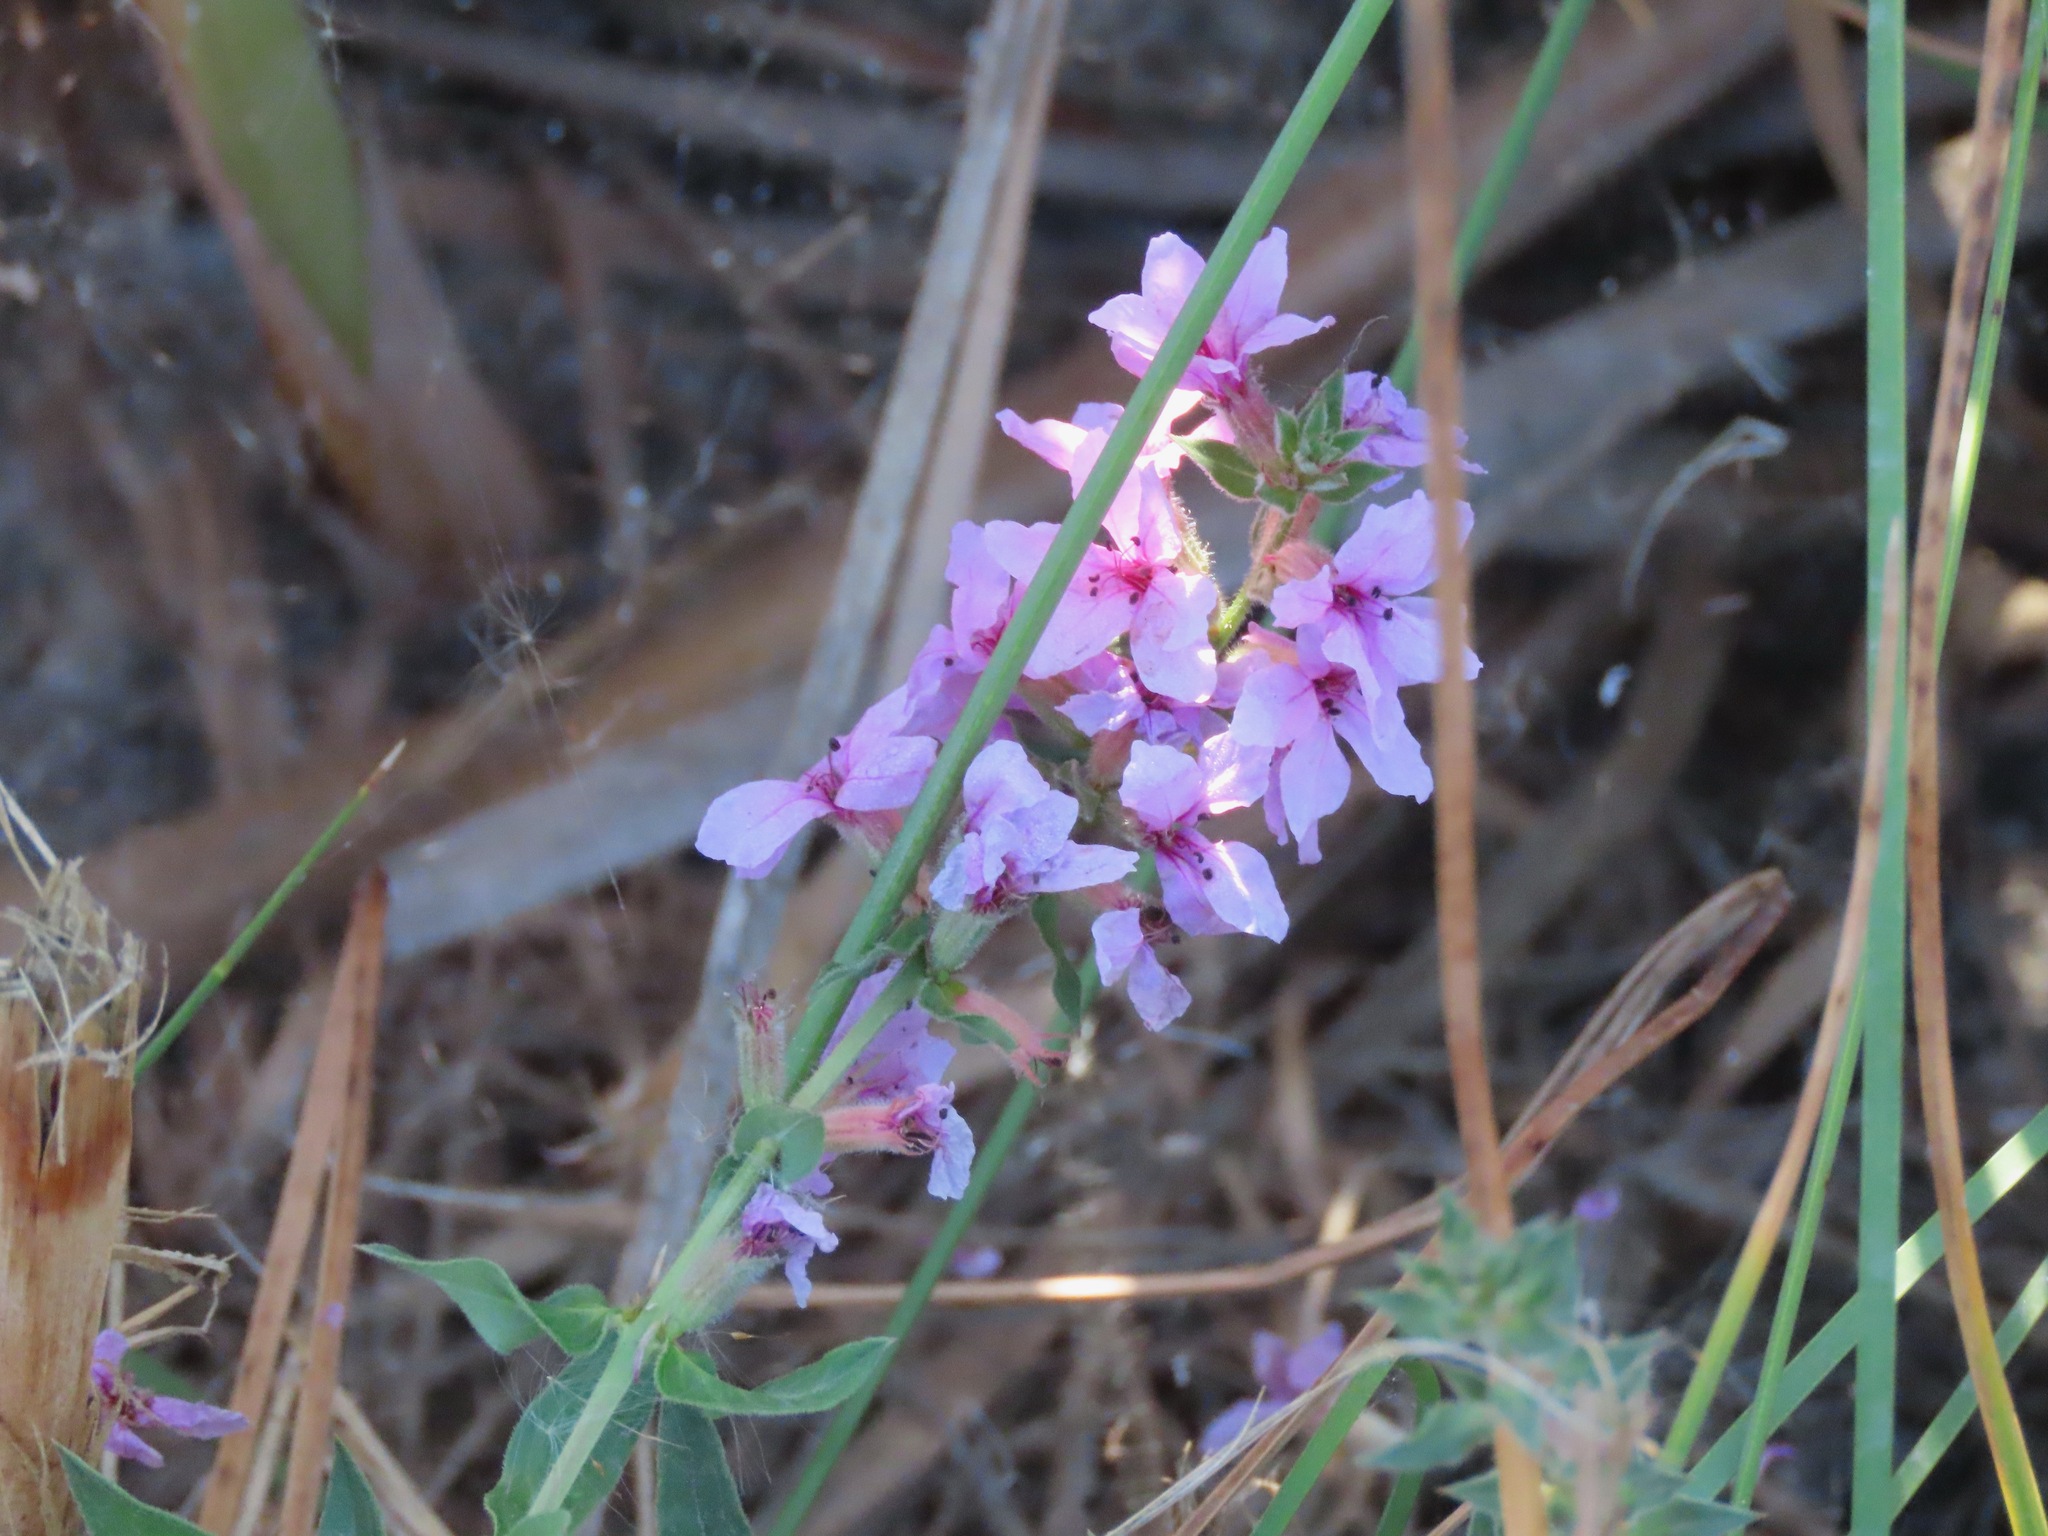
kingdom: Plantae
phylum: Tracheophyta
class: Magnoliopsida
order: Myrtales
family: Lythraceae
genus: Lythrum
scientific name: Lythrum salicaria
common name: Purple loosestrife
